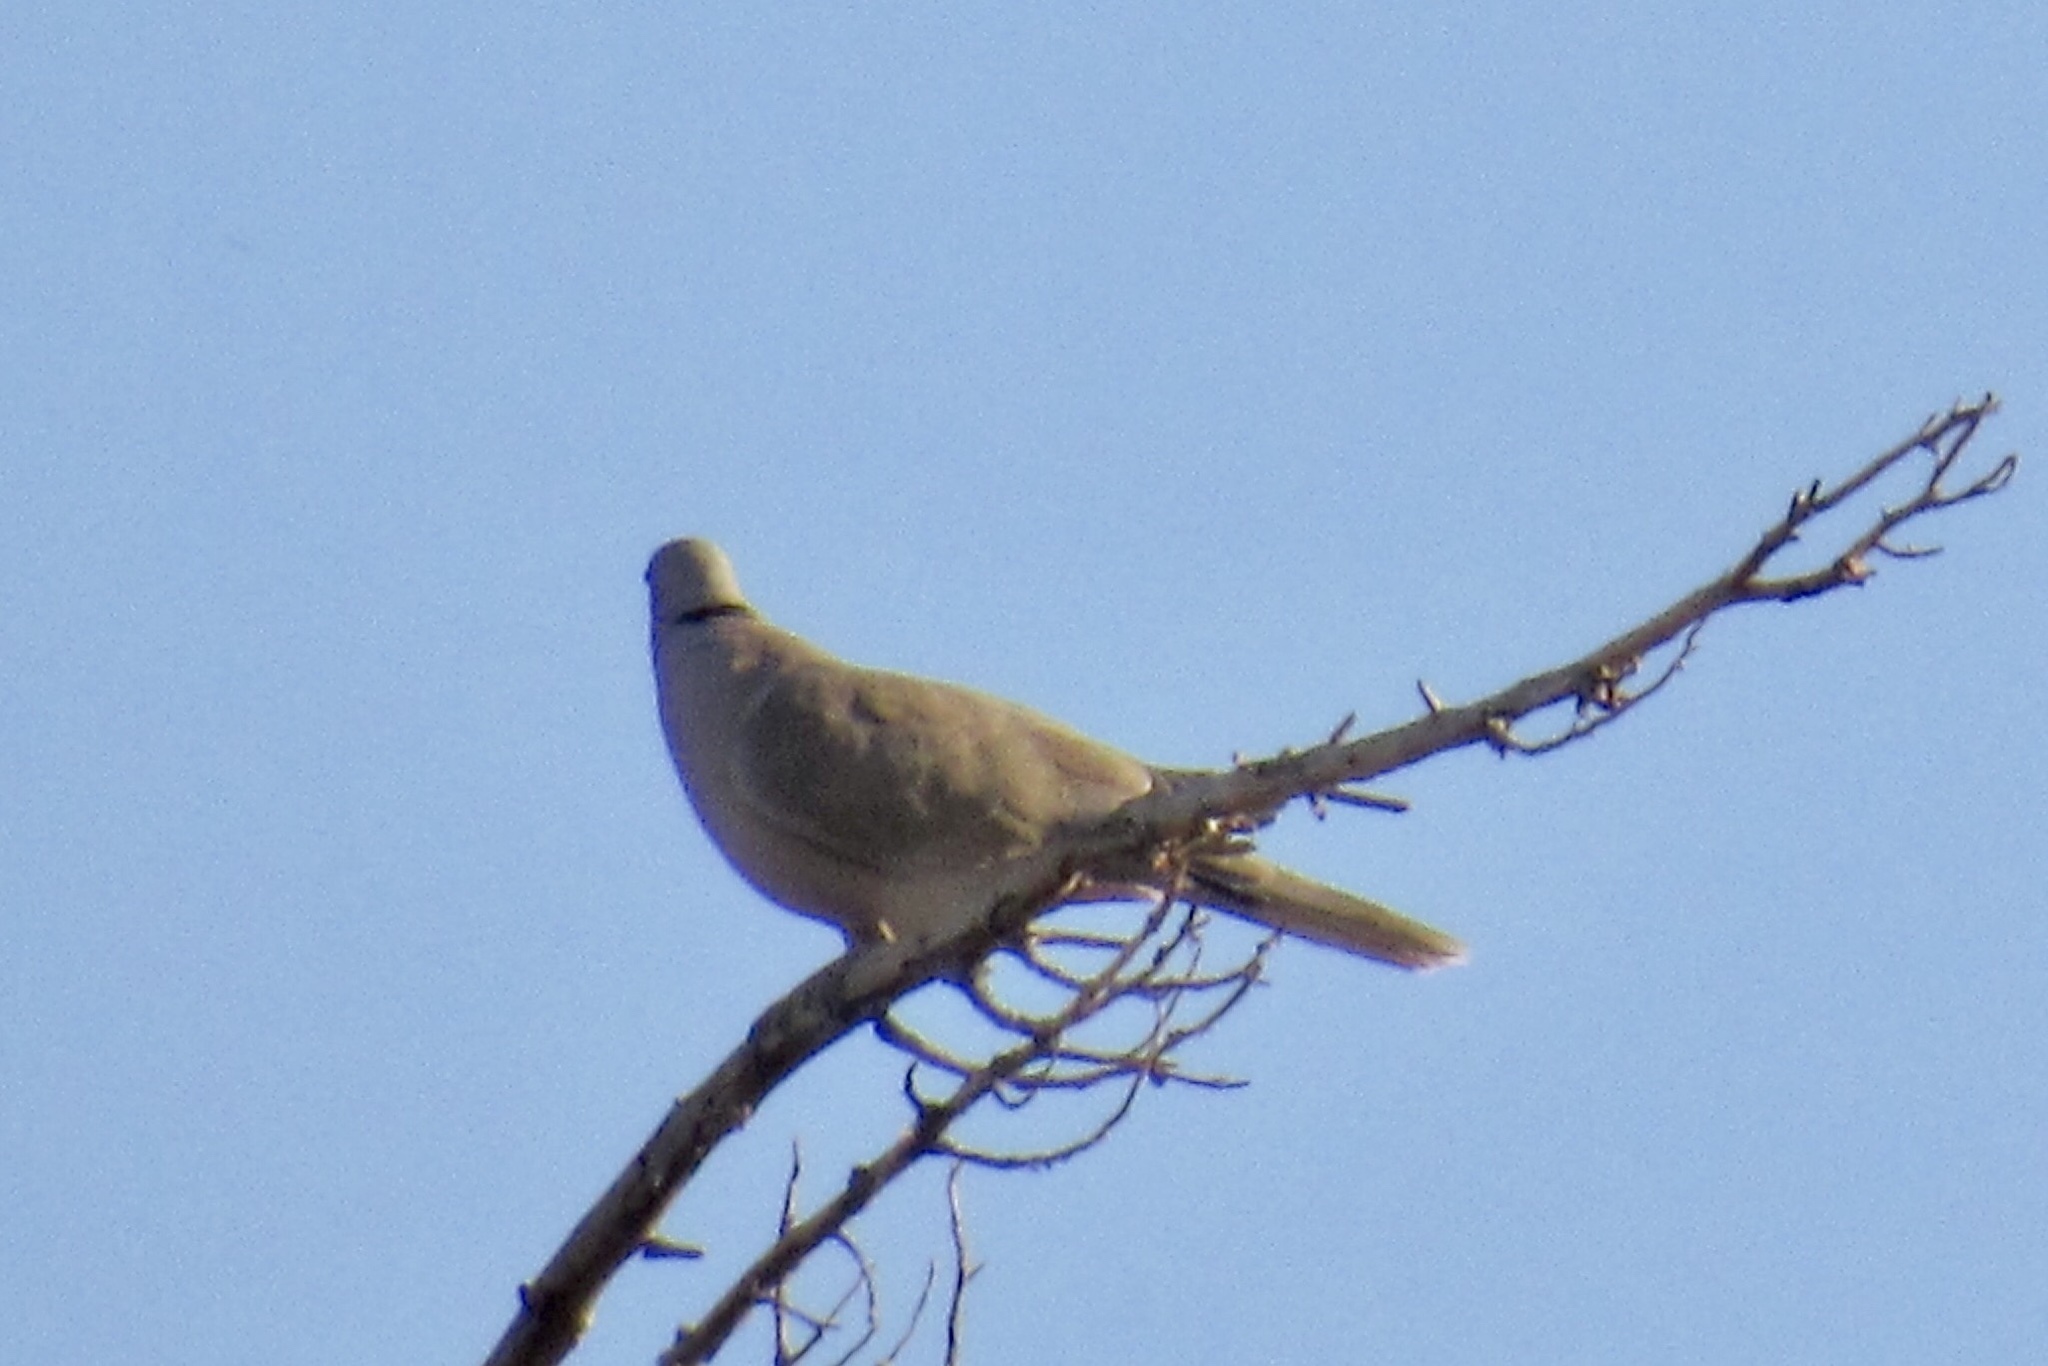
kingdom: Animalia
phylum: Chordata
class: Aves
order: Columbiformes
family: Columbidae
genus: Streptopelia
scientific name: Streptopelia decaocto
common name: Eurasian collared dove
